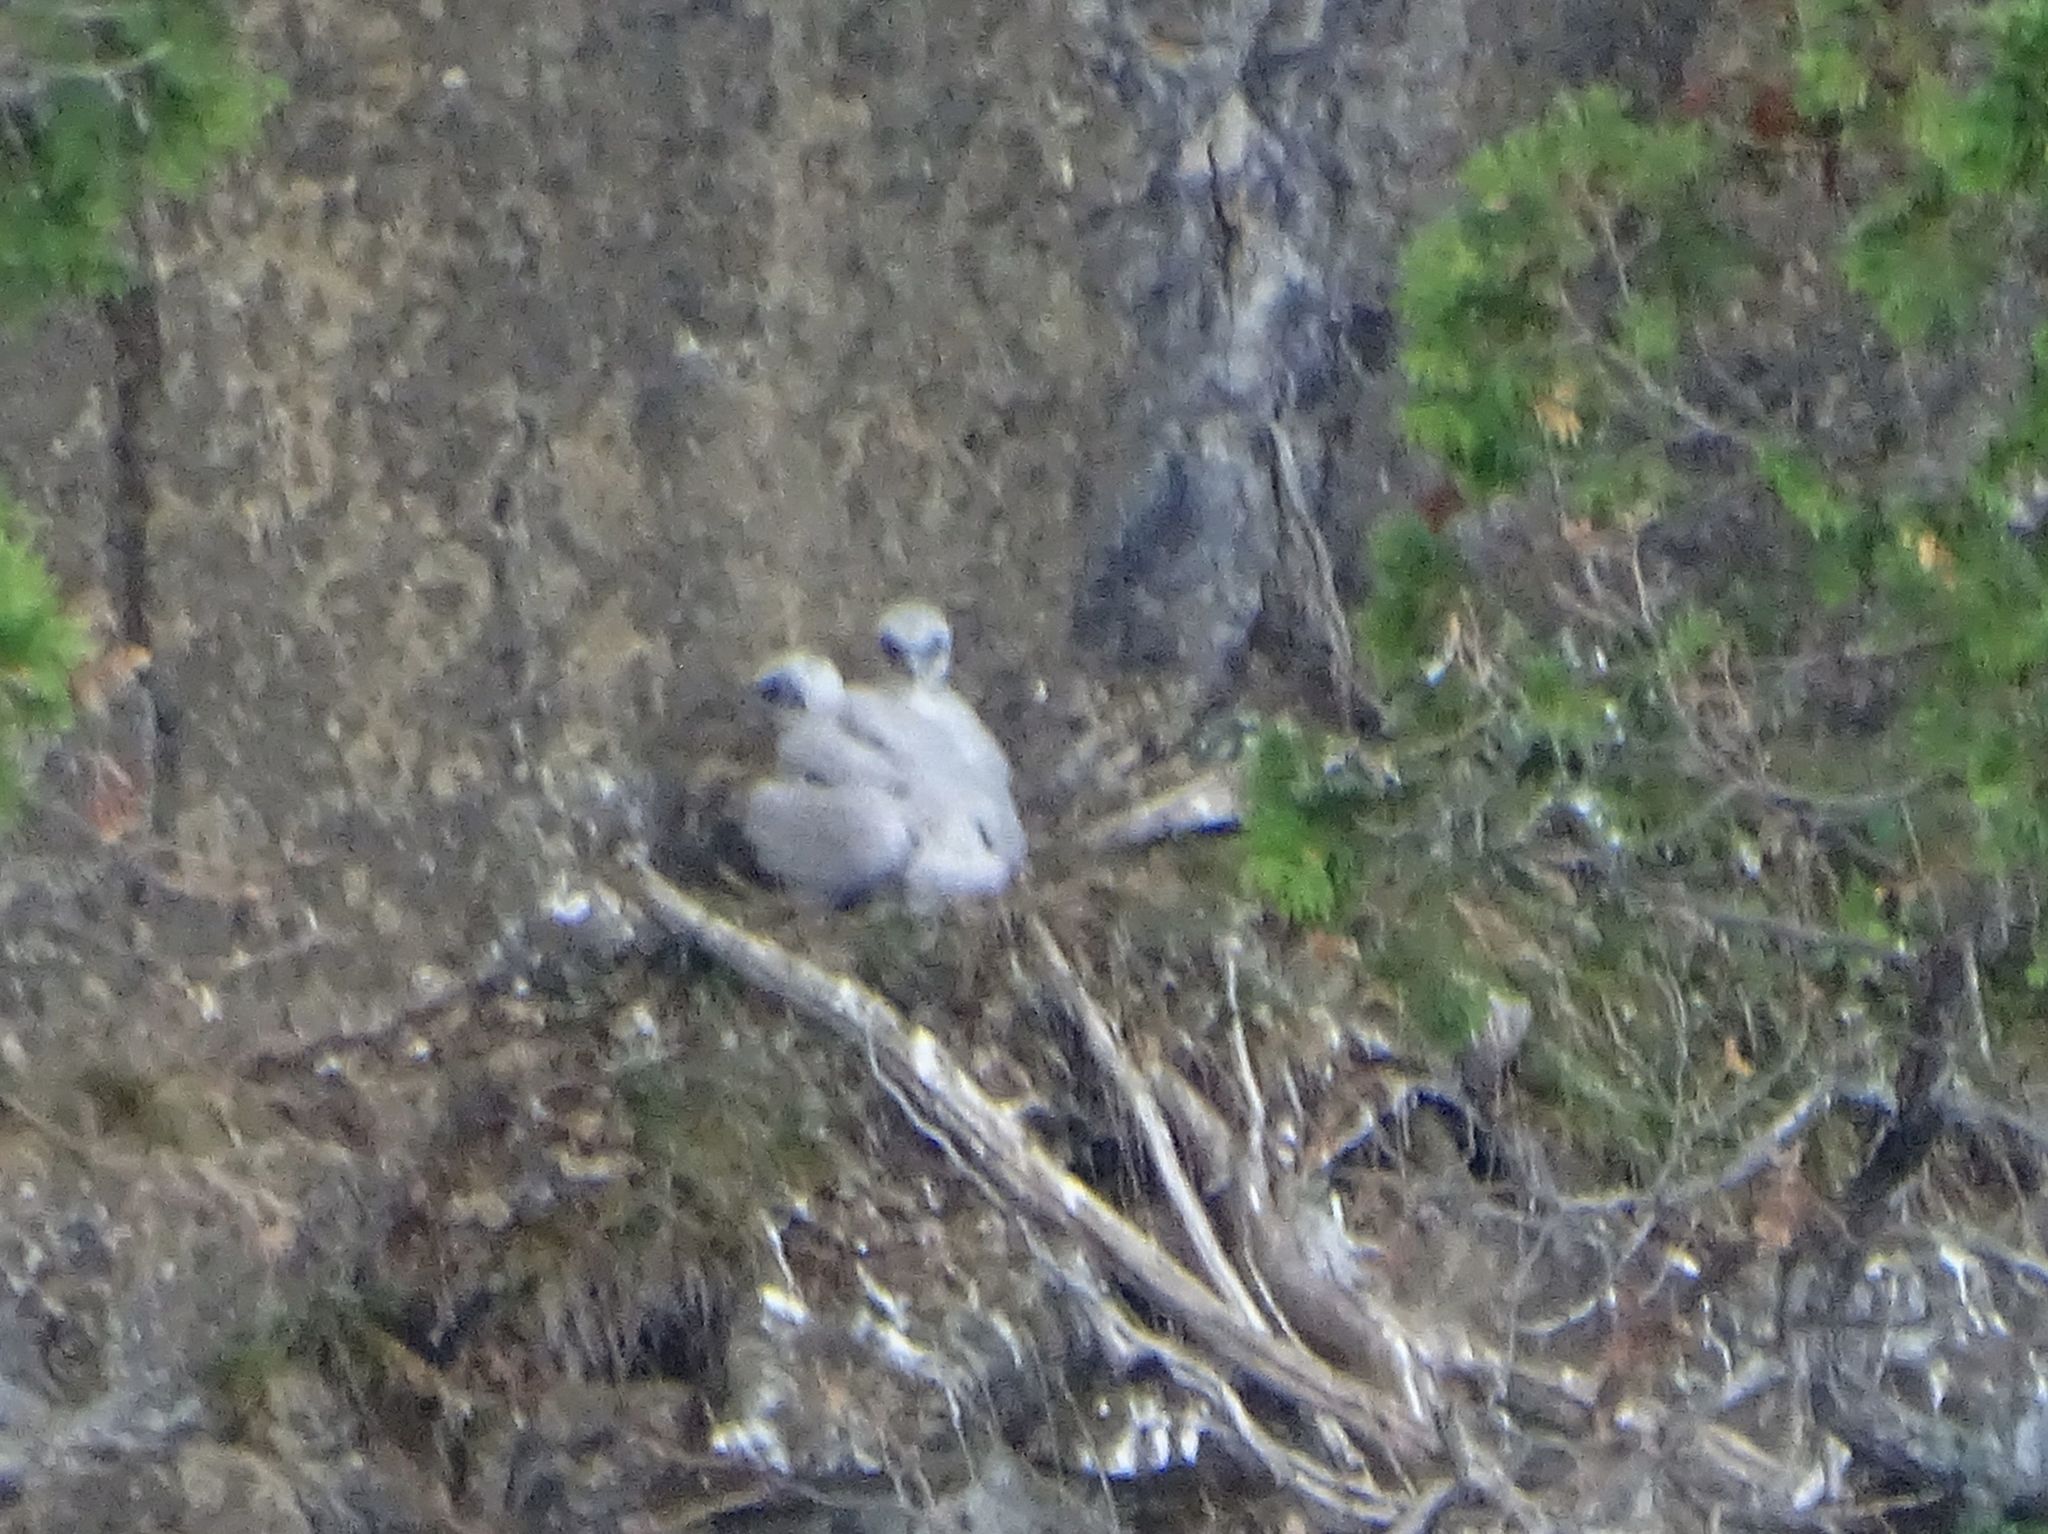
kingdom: Animalia
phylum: Chordata
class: Aves
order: Falconiformes
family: Falconidae
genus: Falco
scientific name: Falco peregrinus
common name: Peregrine falcon
